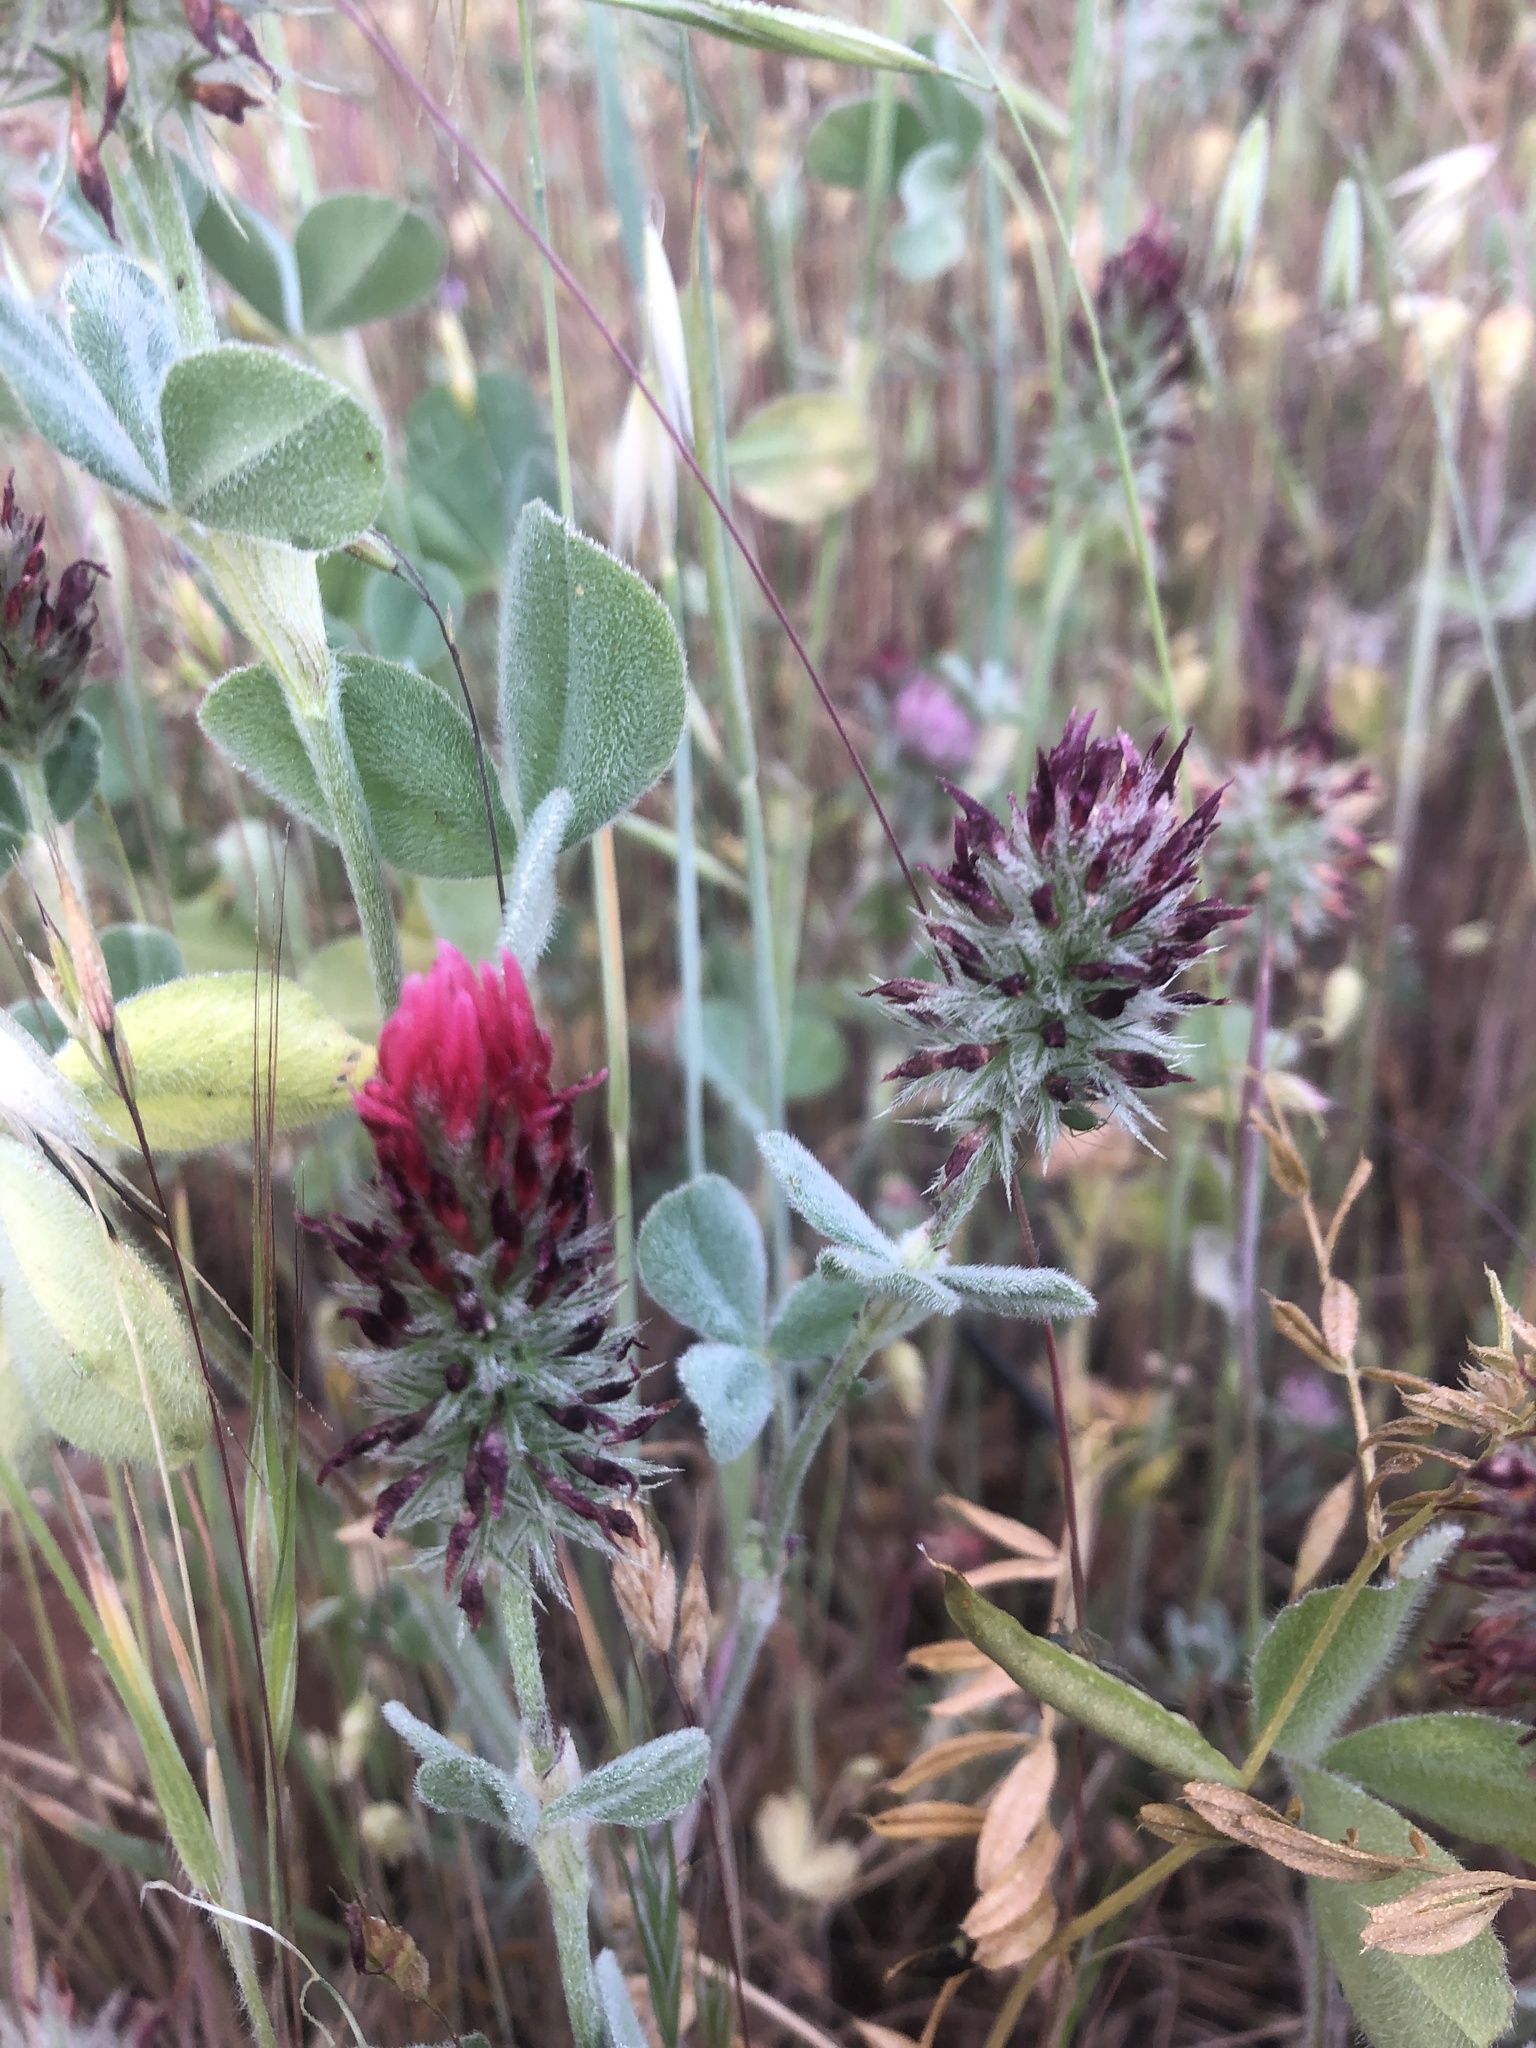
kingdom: Plantae
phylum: Tracheophyta
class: Magnoliopsida
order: Fabales
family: Fabaceae
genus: Trifolium
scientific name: Trifolium incarnatum
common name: Crimson clover
